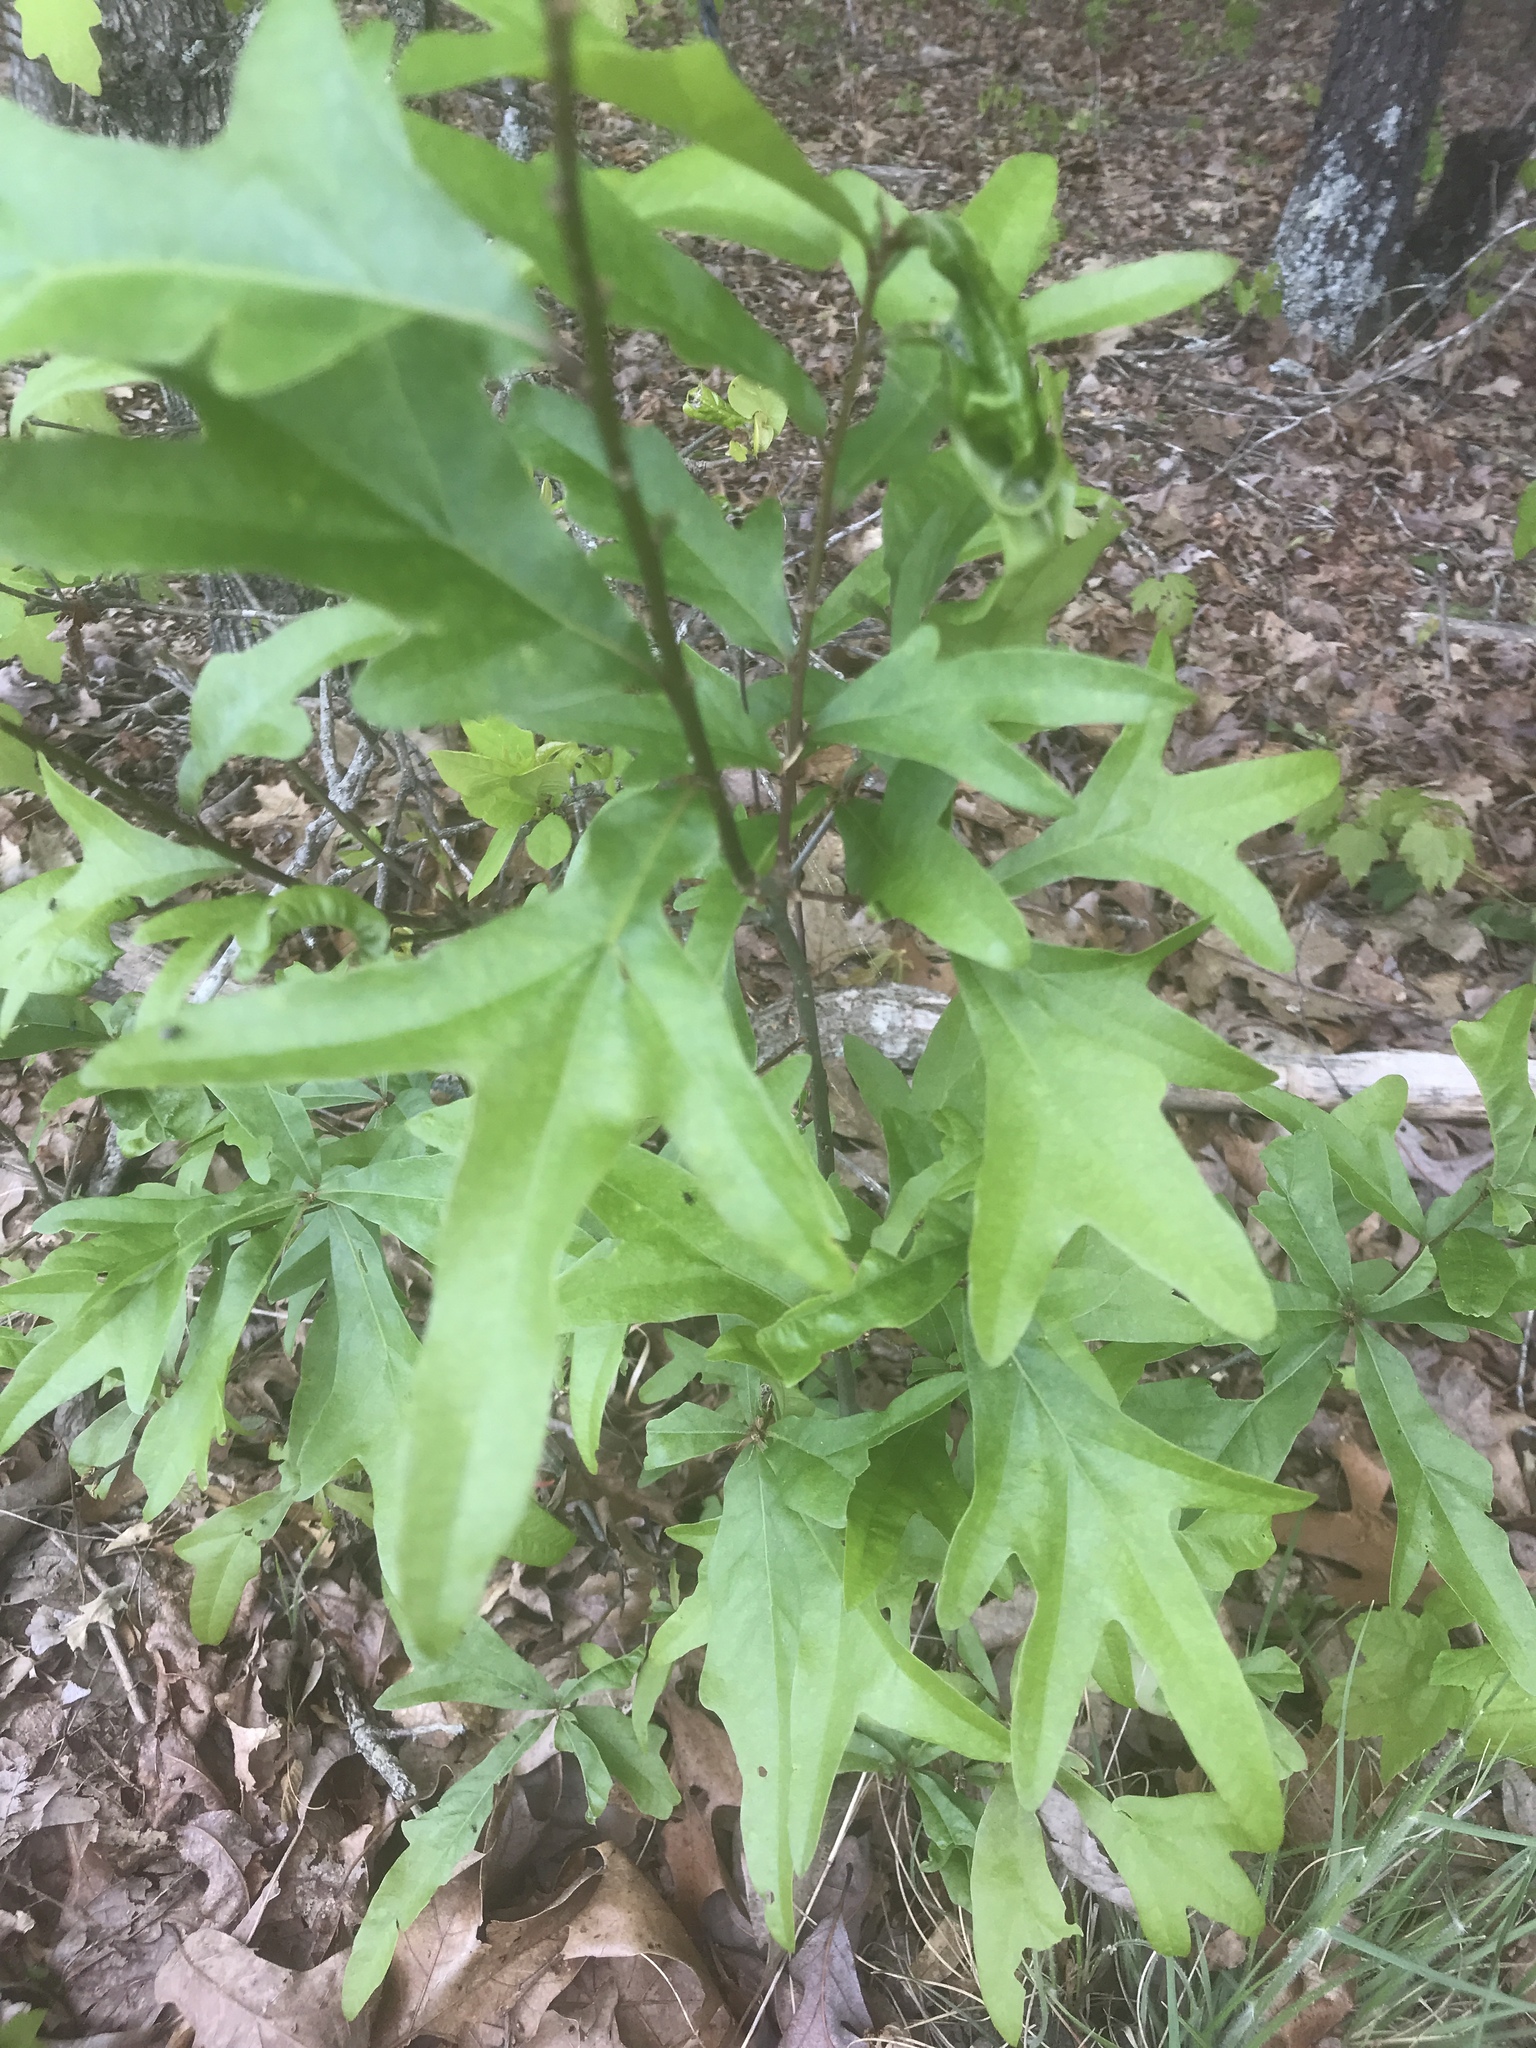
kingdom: Plantae
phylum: Tracheophyta
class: Magnoliopsida
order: Fagales
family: Fagaceae
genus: Quercus
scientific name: Quercus nigra
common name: Water oak
